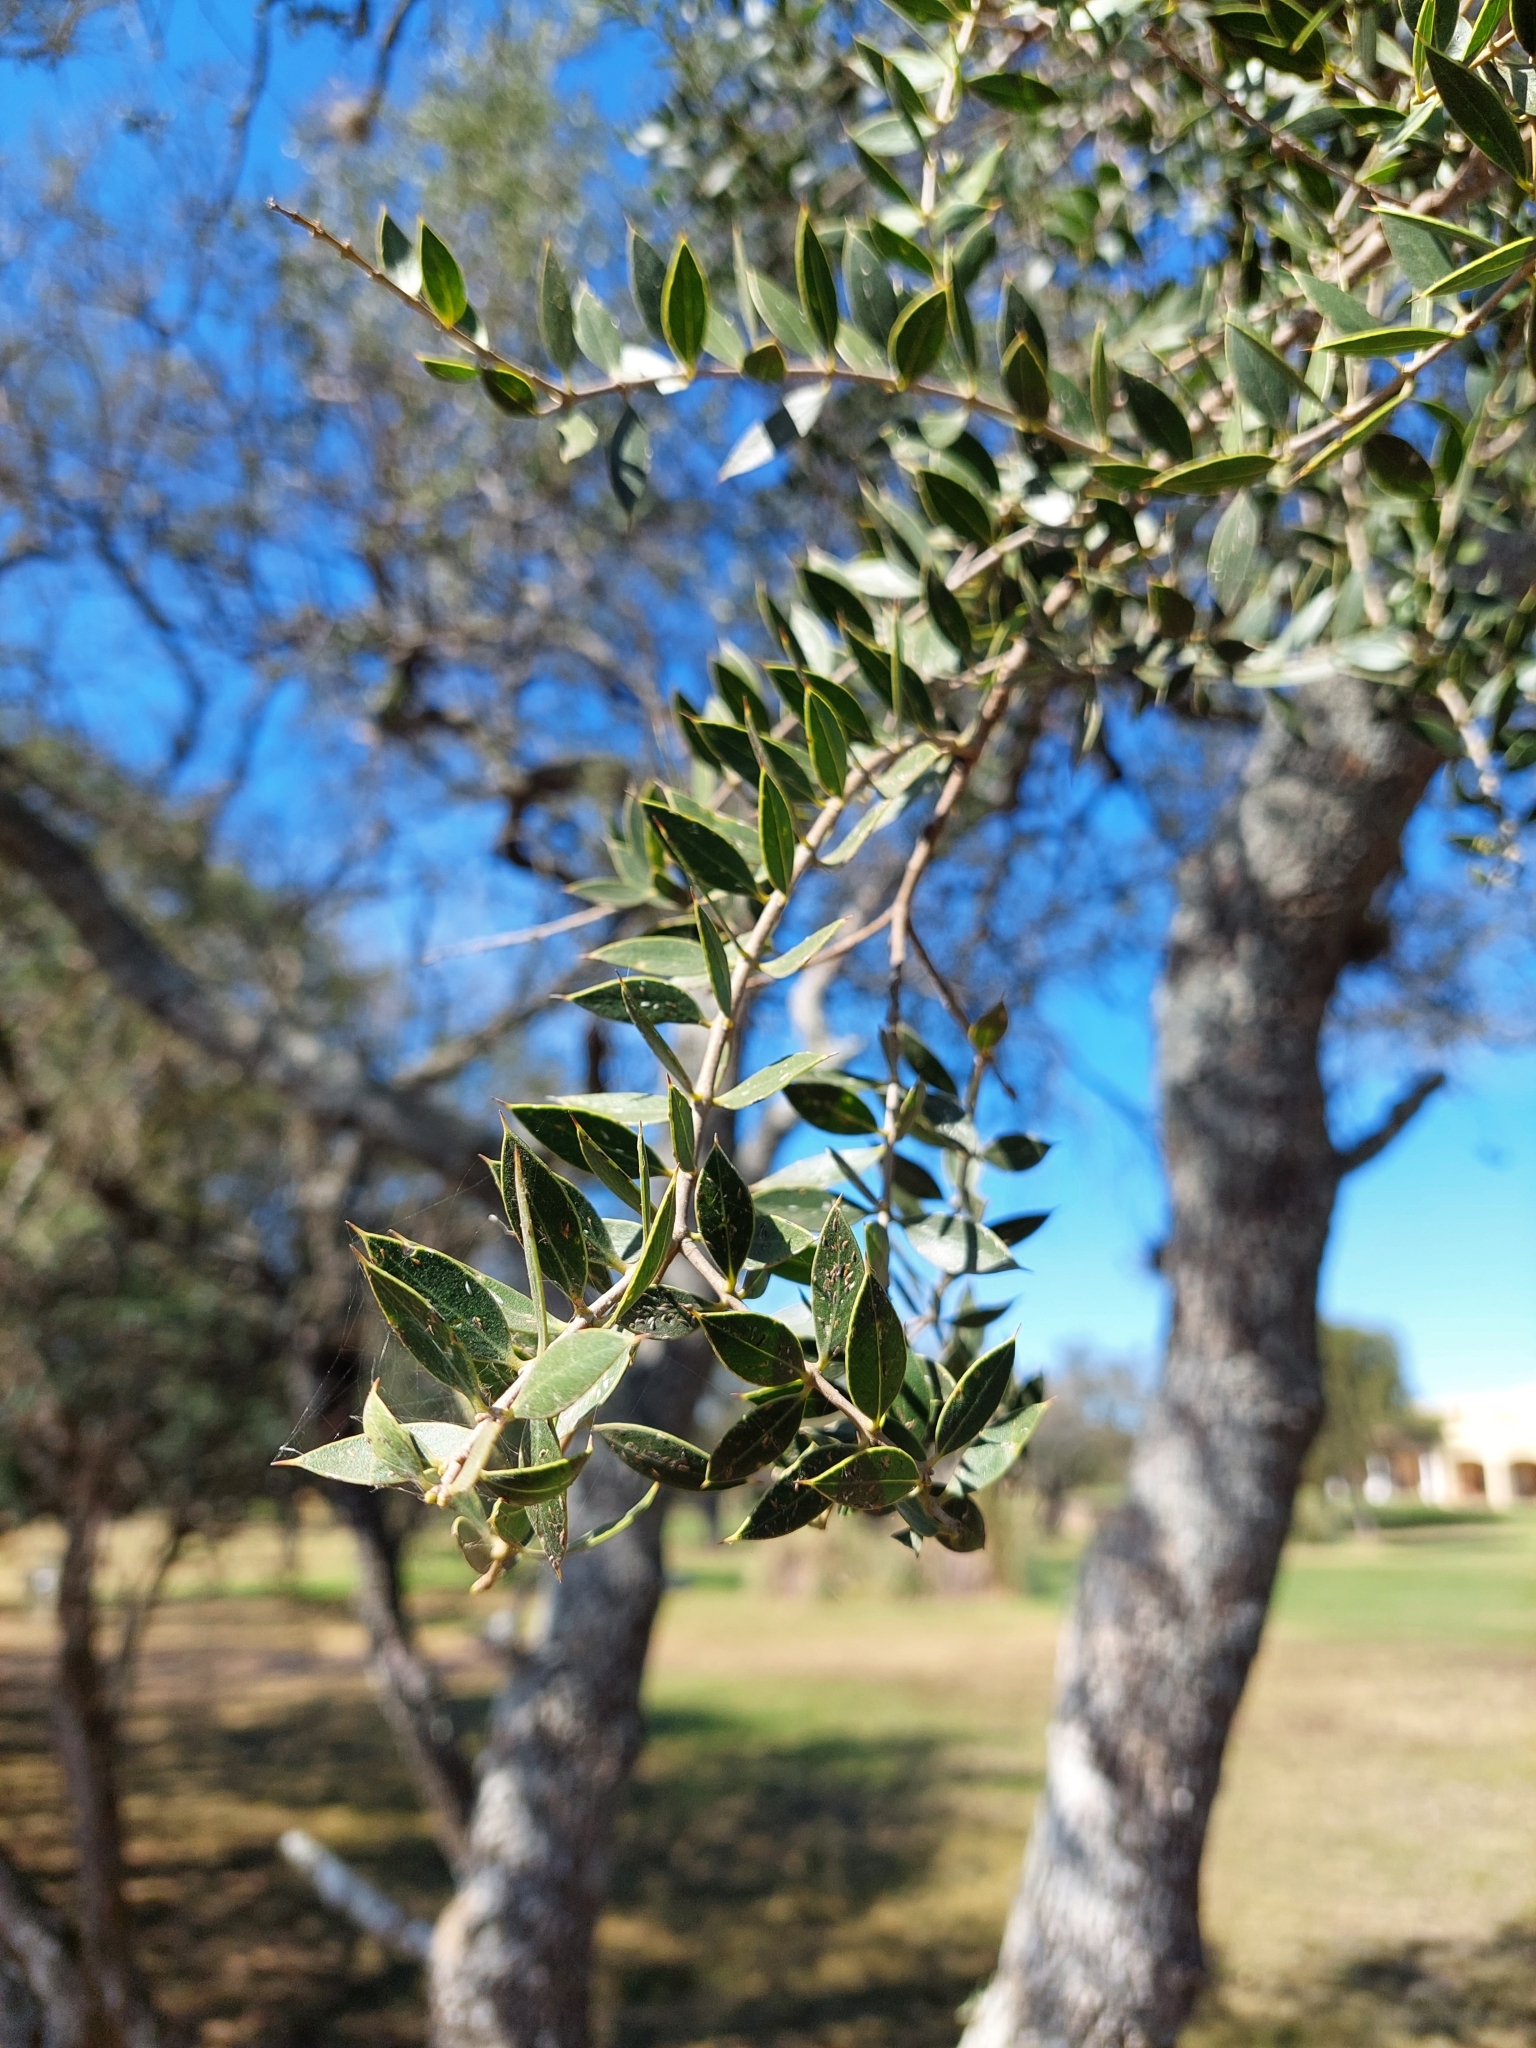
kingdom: Plantae
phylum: Tracheophyta
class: Magnoliopsida
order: Gentianales
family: Apocynaceae
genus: Aspidosperma
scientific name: Aspidosperma quebracho-blanco
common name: White quebracho
